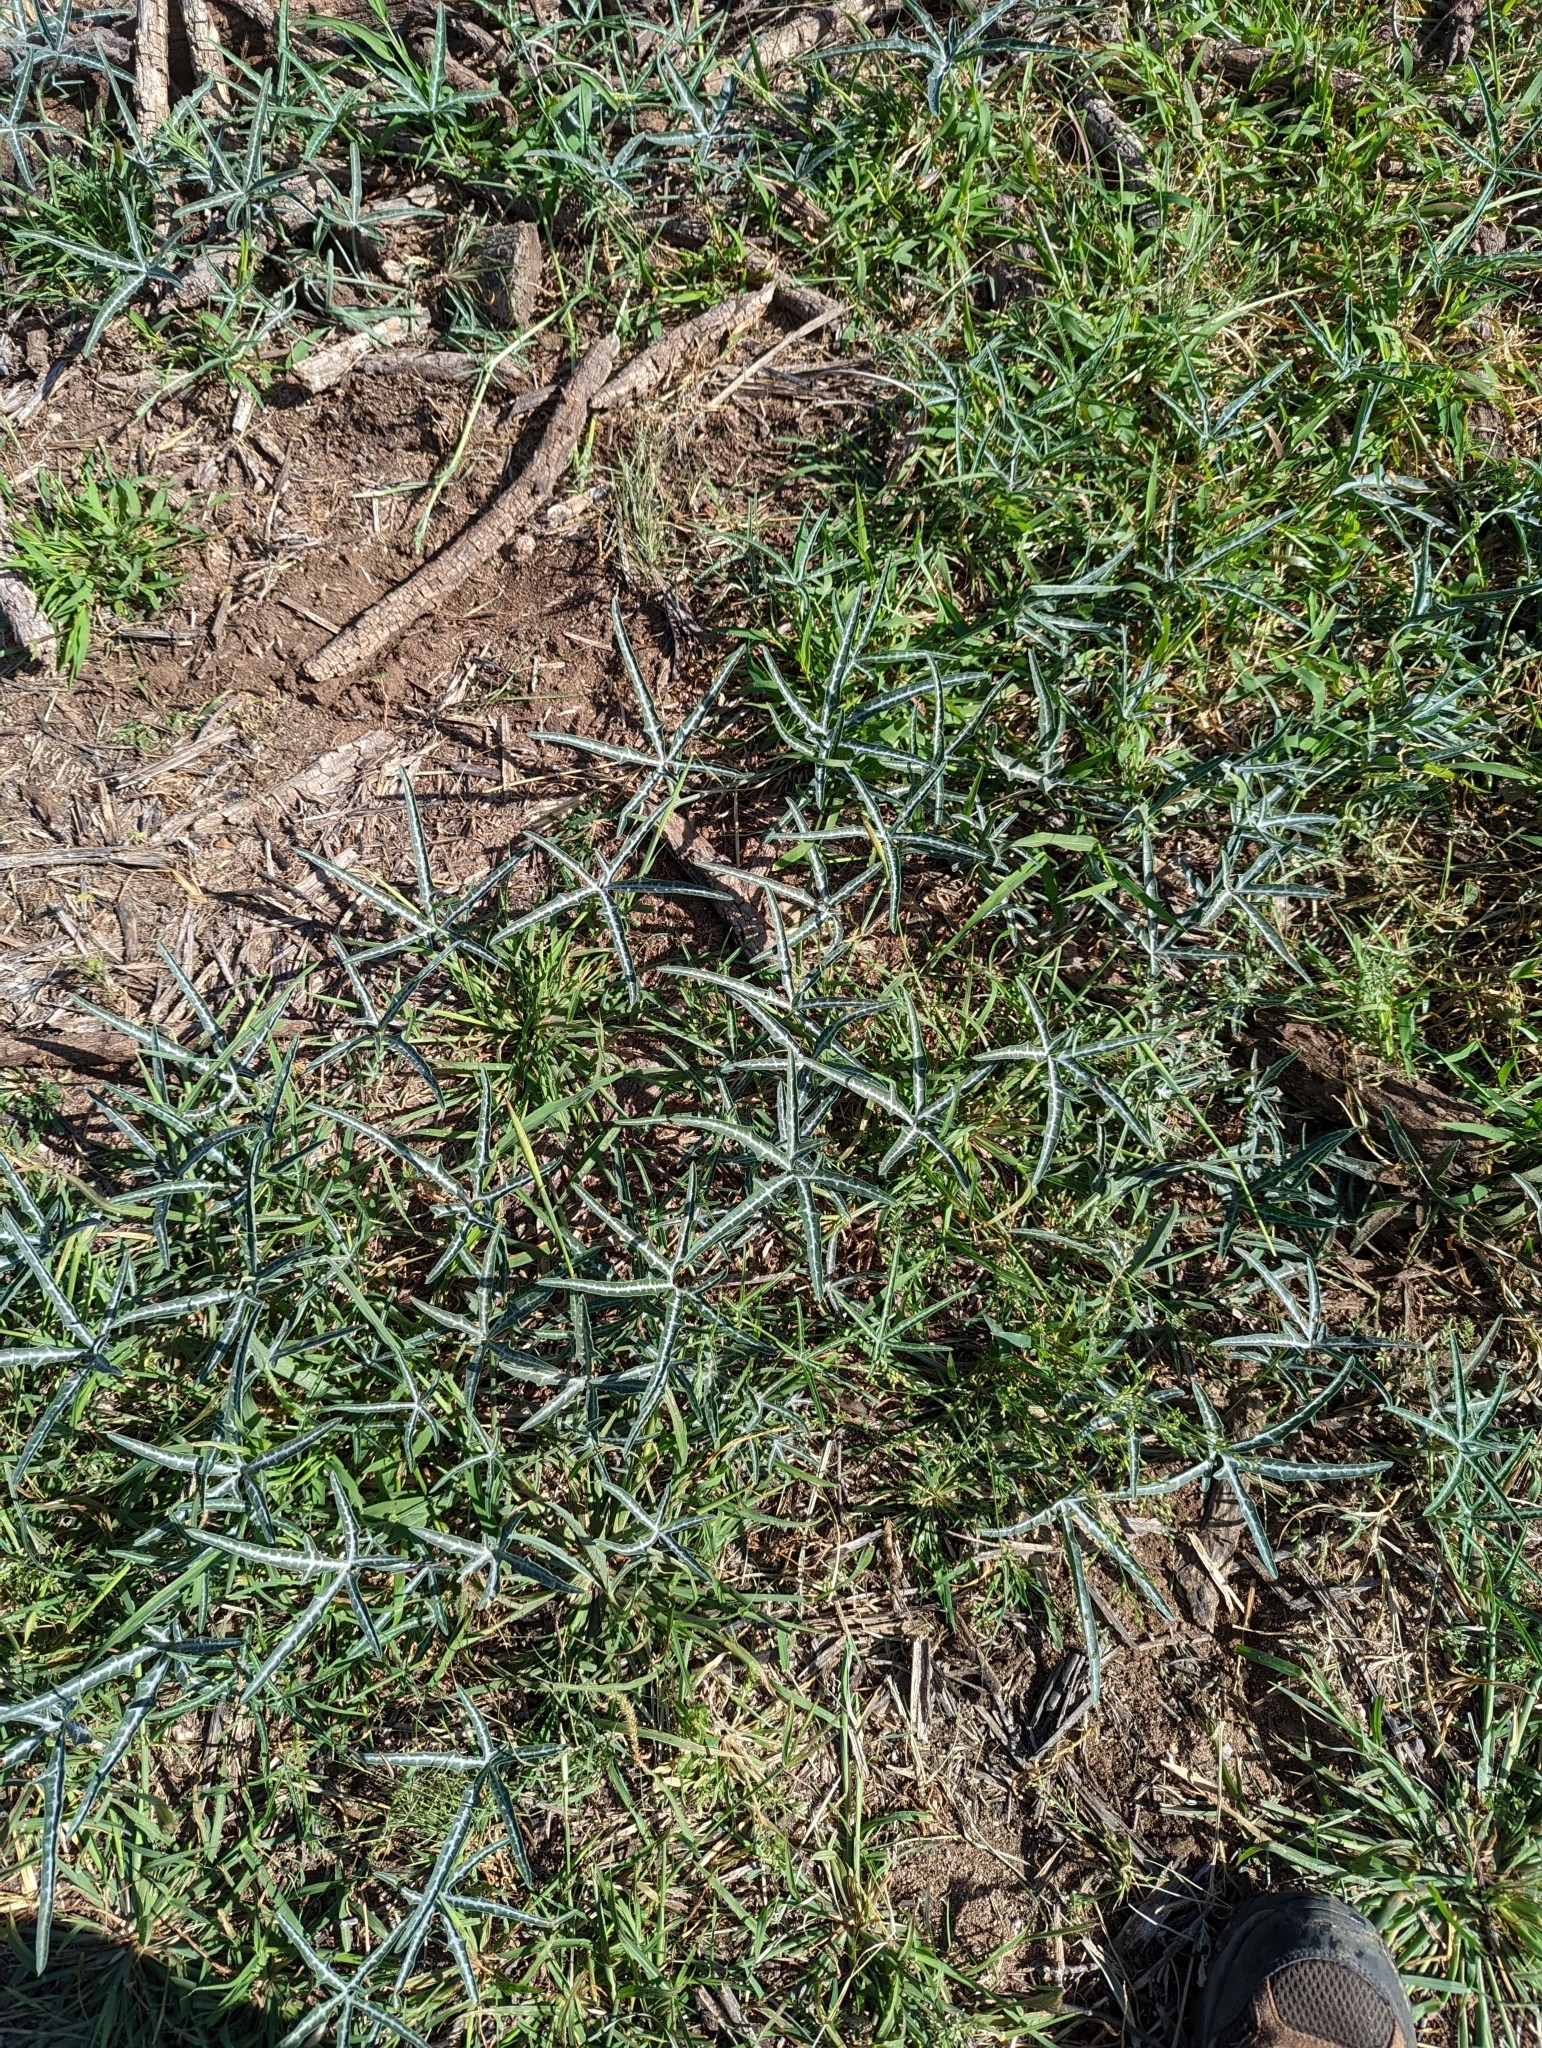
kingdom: Plantae
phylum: Tracheophyta
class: Magnoliopsida
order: Cucurbitales
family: Cucurbitaceae
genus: Cucurbita
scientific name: Cucurbita digitata
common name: Finger-leaf gourd
